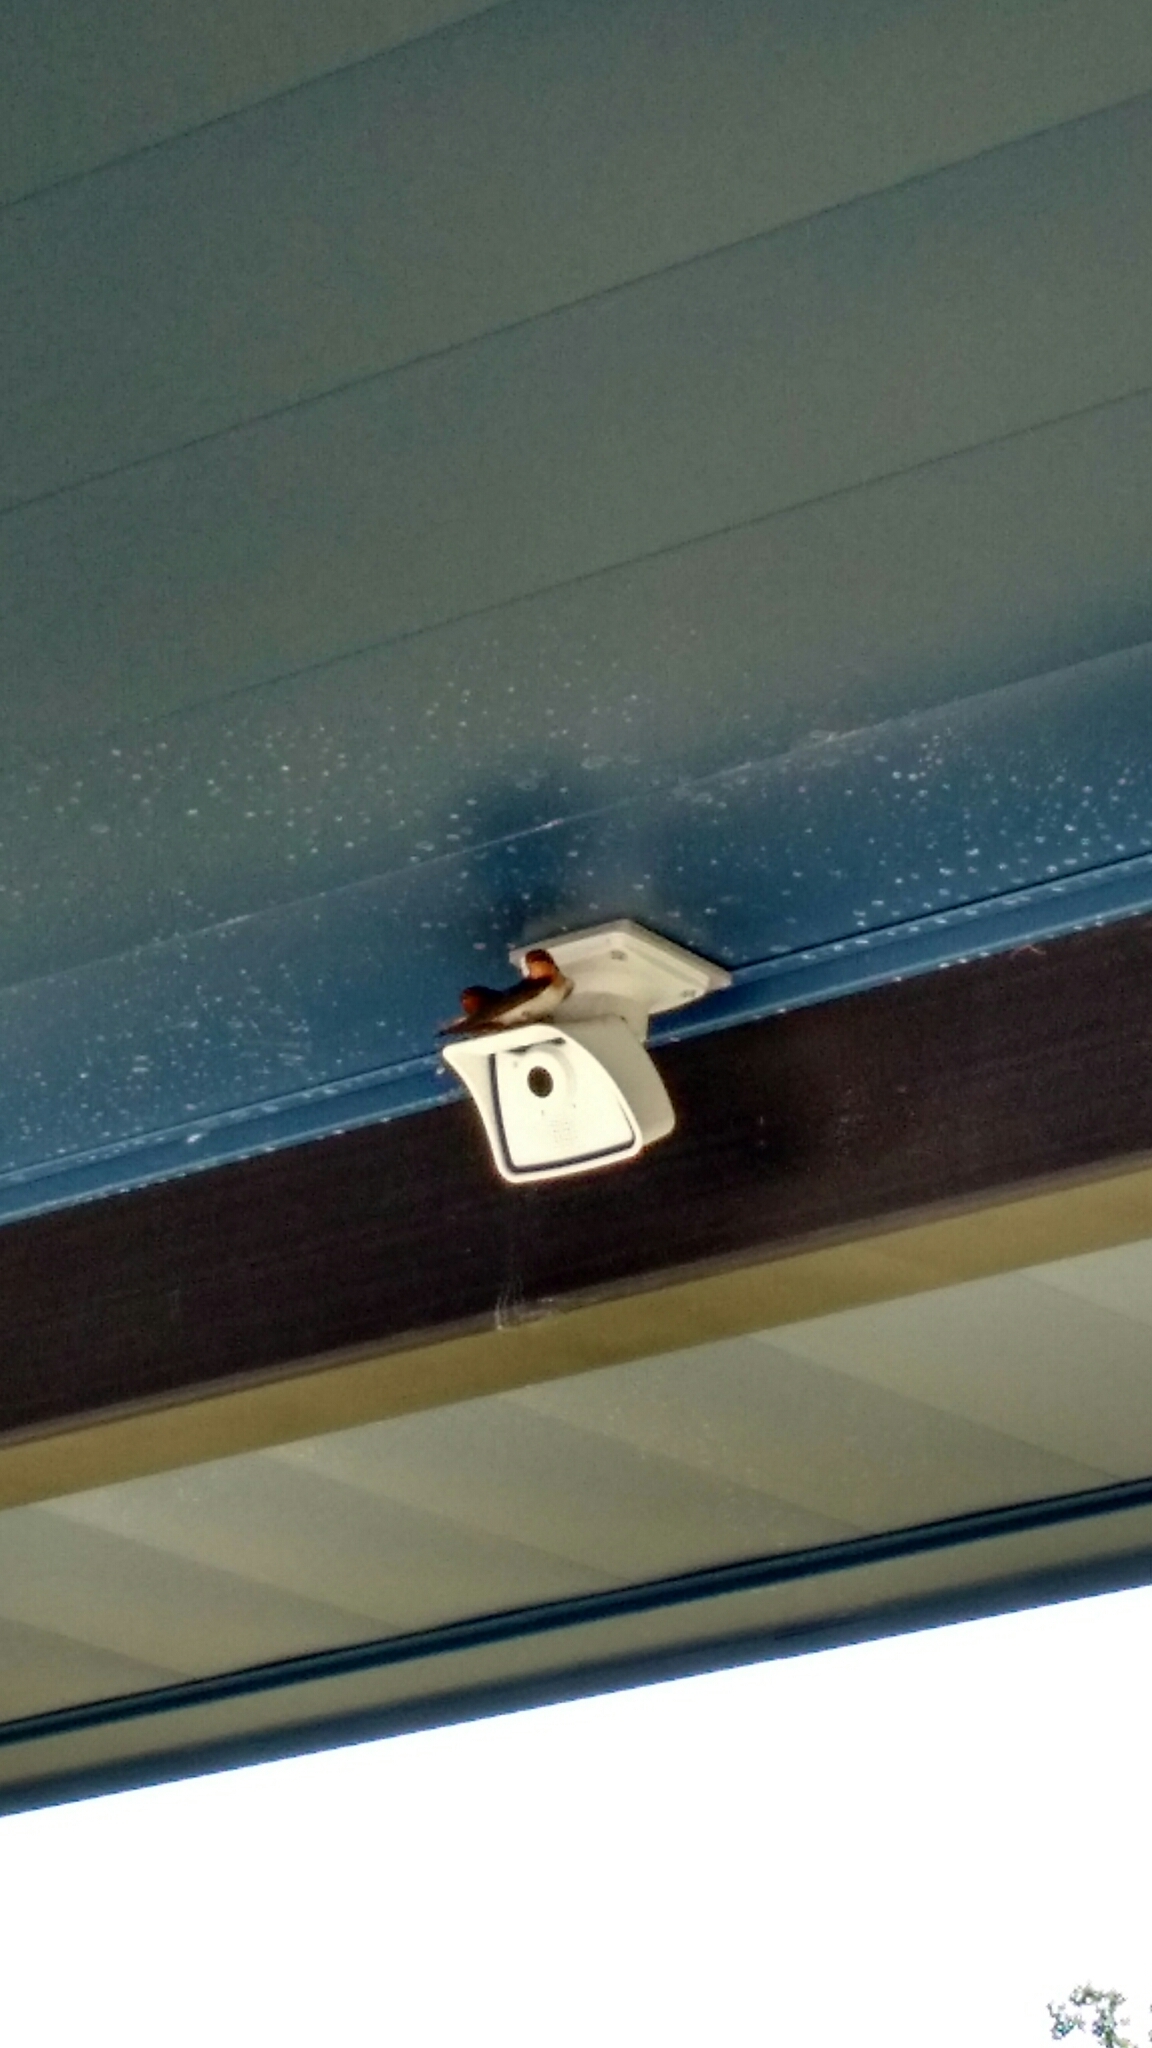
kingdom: Animalia
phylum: Chordata
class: Aves
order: Passeriformes
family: Hirundinidae
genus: Hirundo
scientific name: Hirundo rustica
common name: Barn swallow
